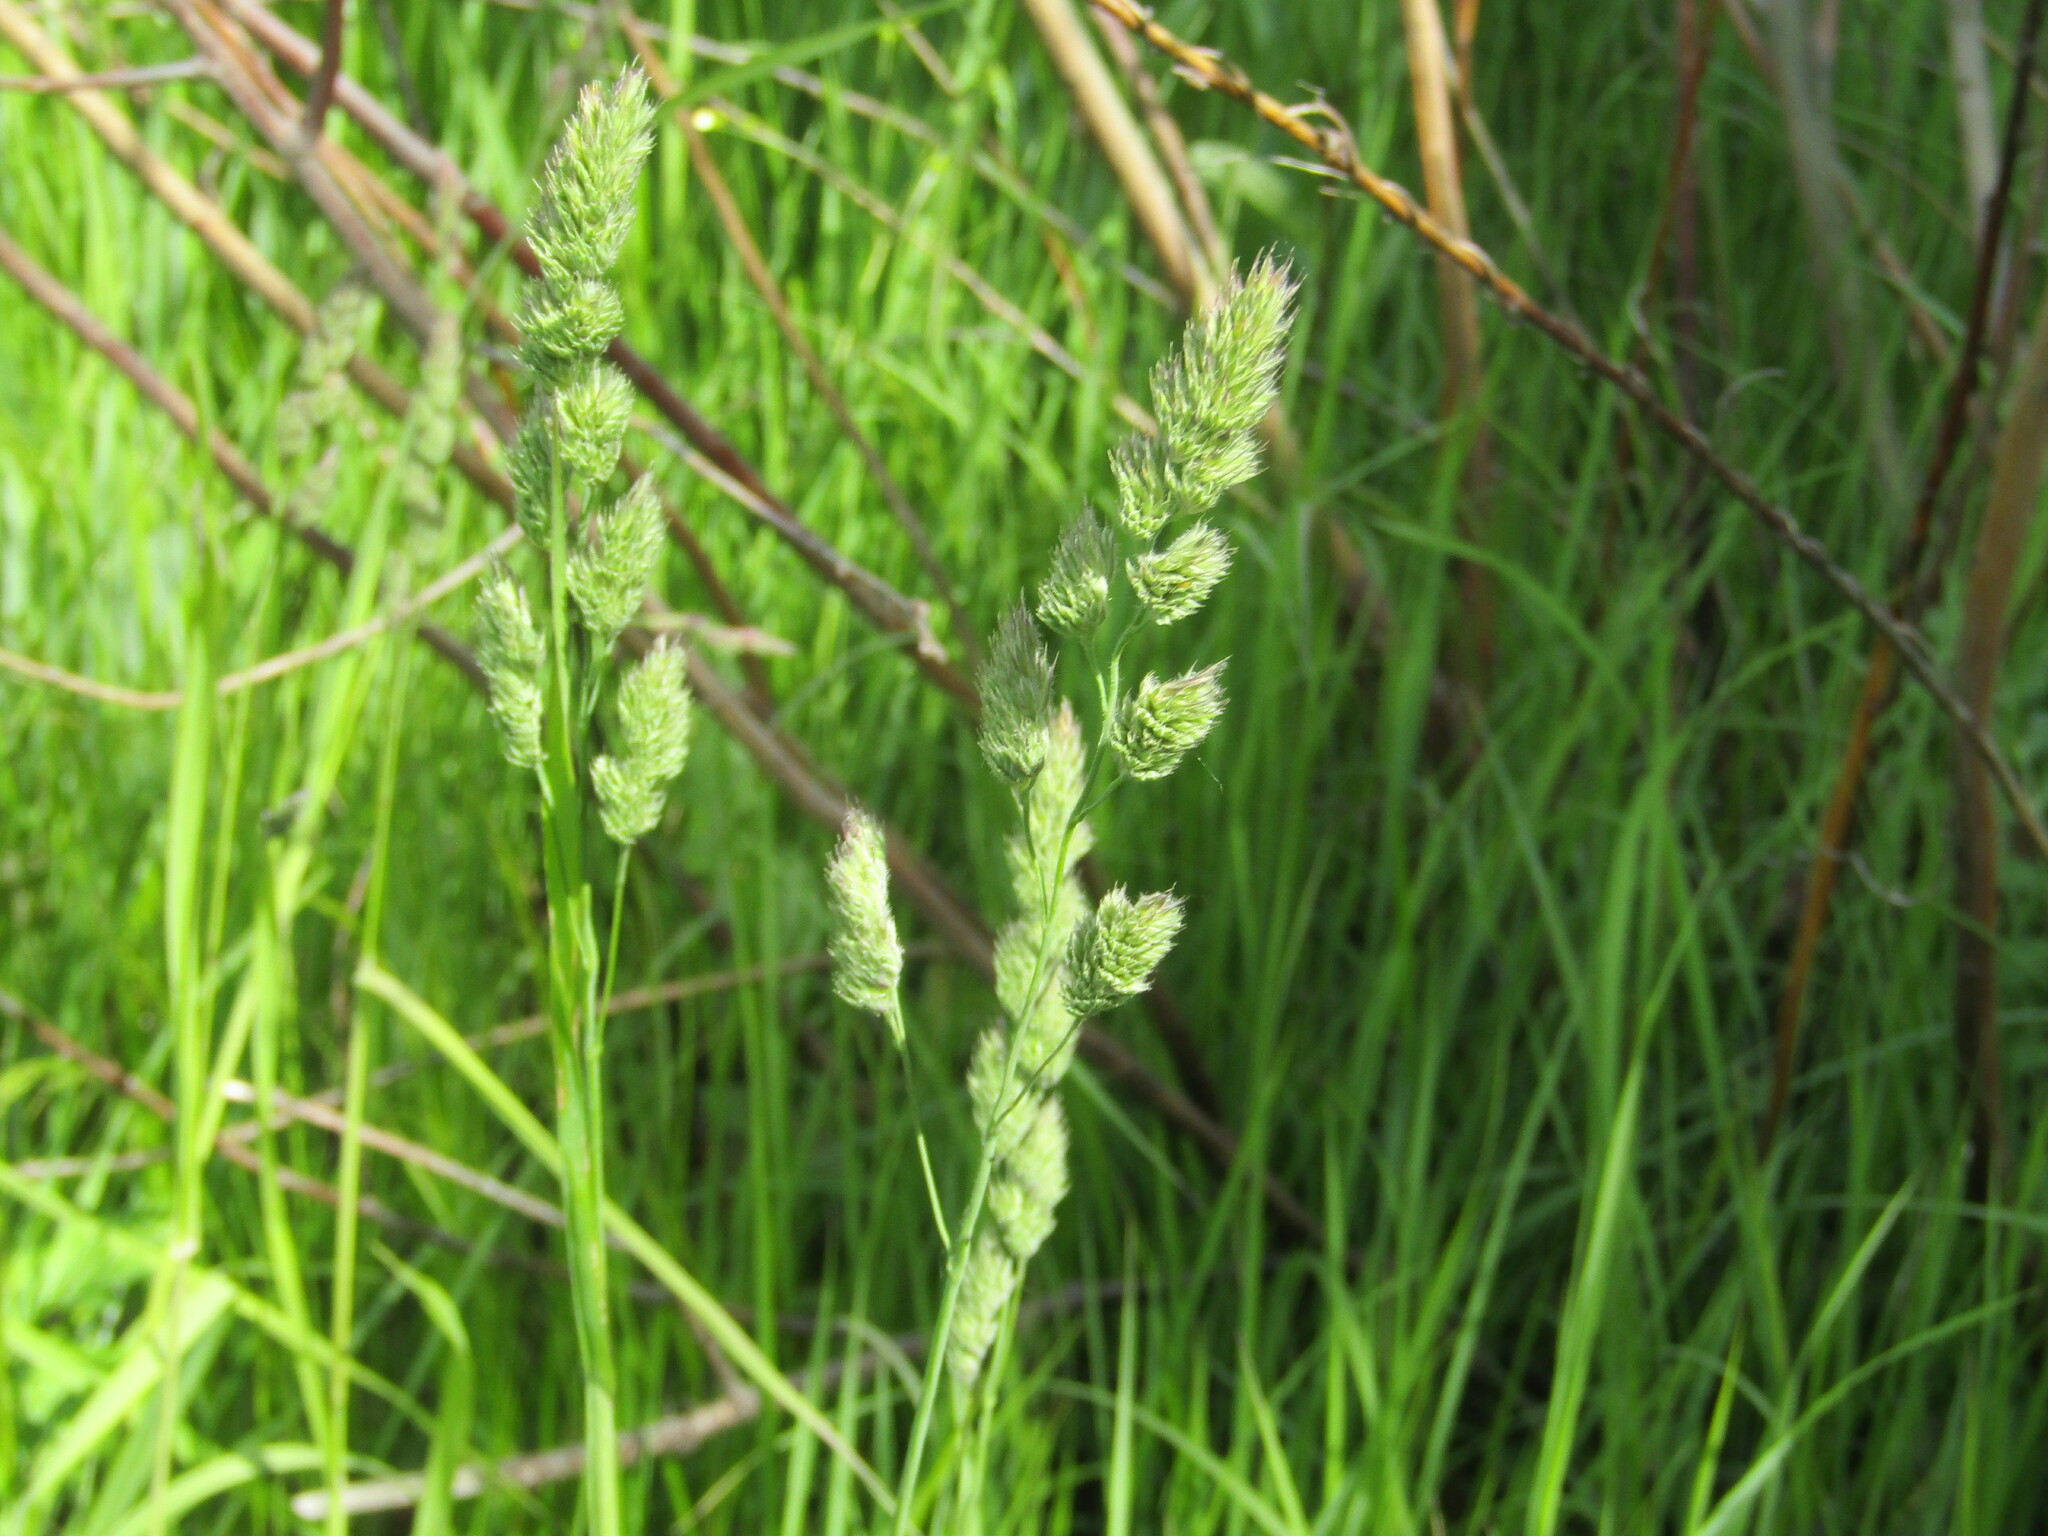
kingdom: Plantae
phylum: Tracheophyta
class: Liliopsida
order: Poales
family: Poaceae
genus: Dactylis
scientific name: Dactylis glomerata
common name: Orchardgrass
